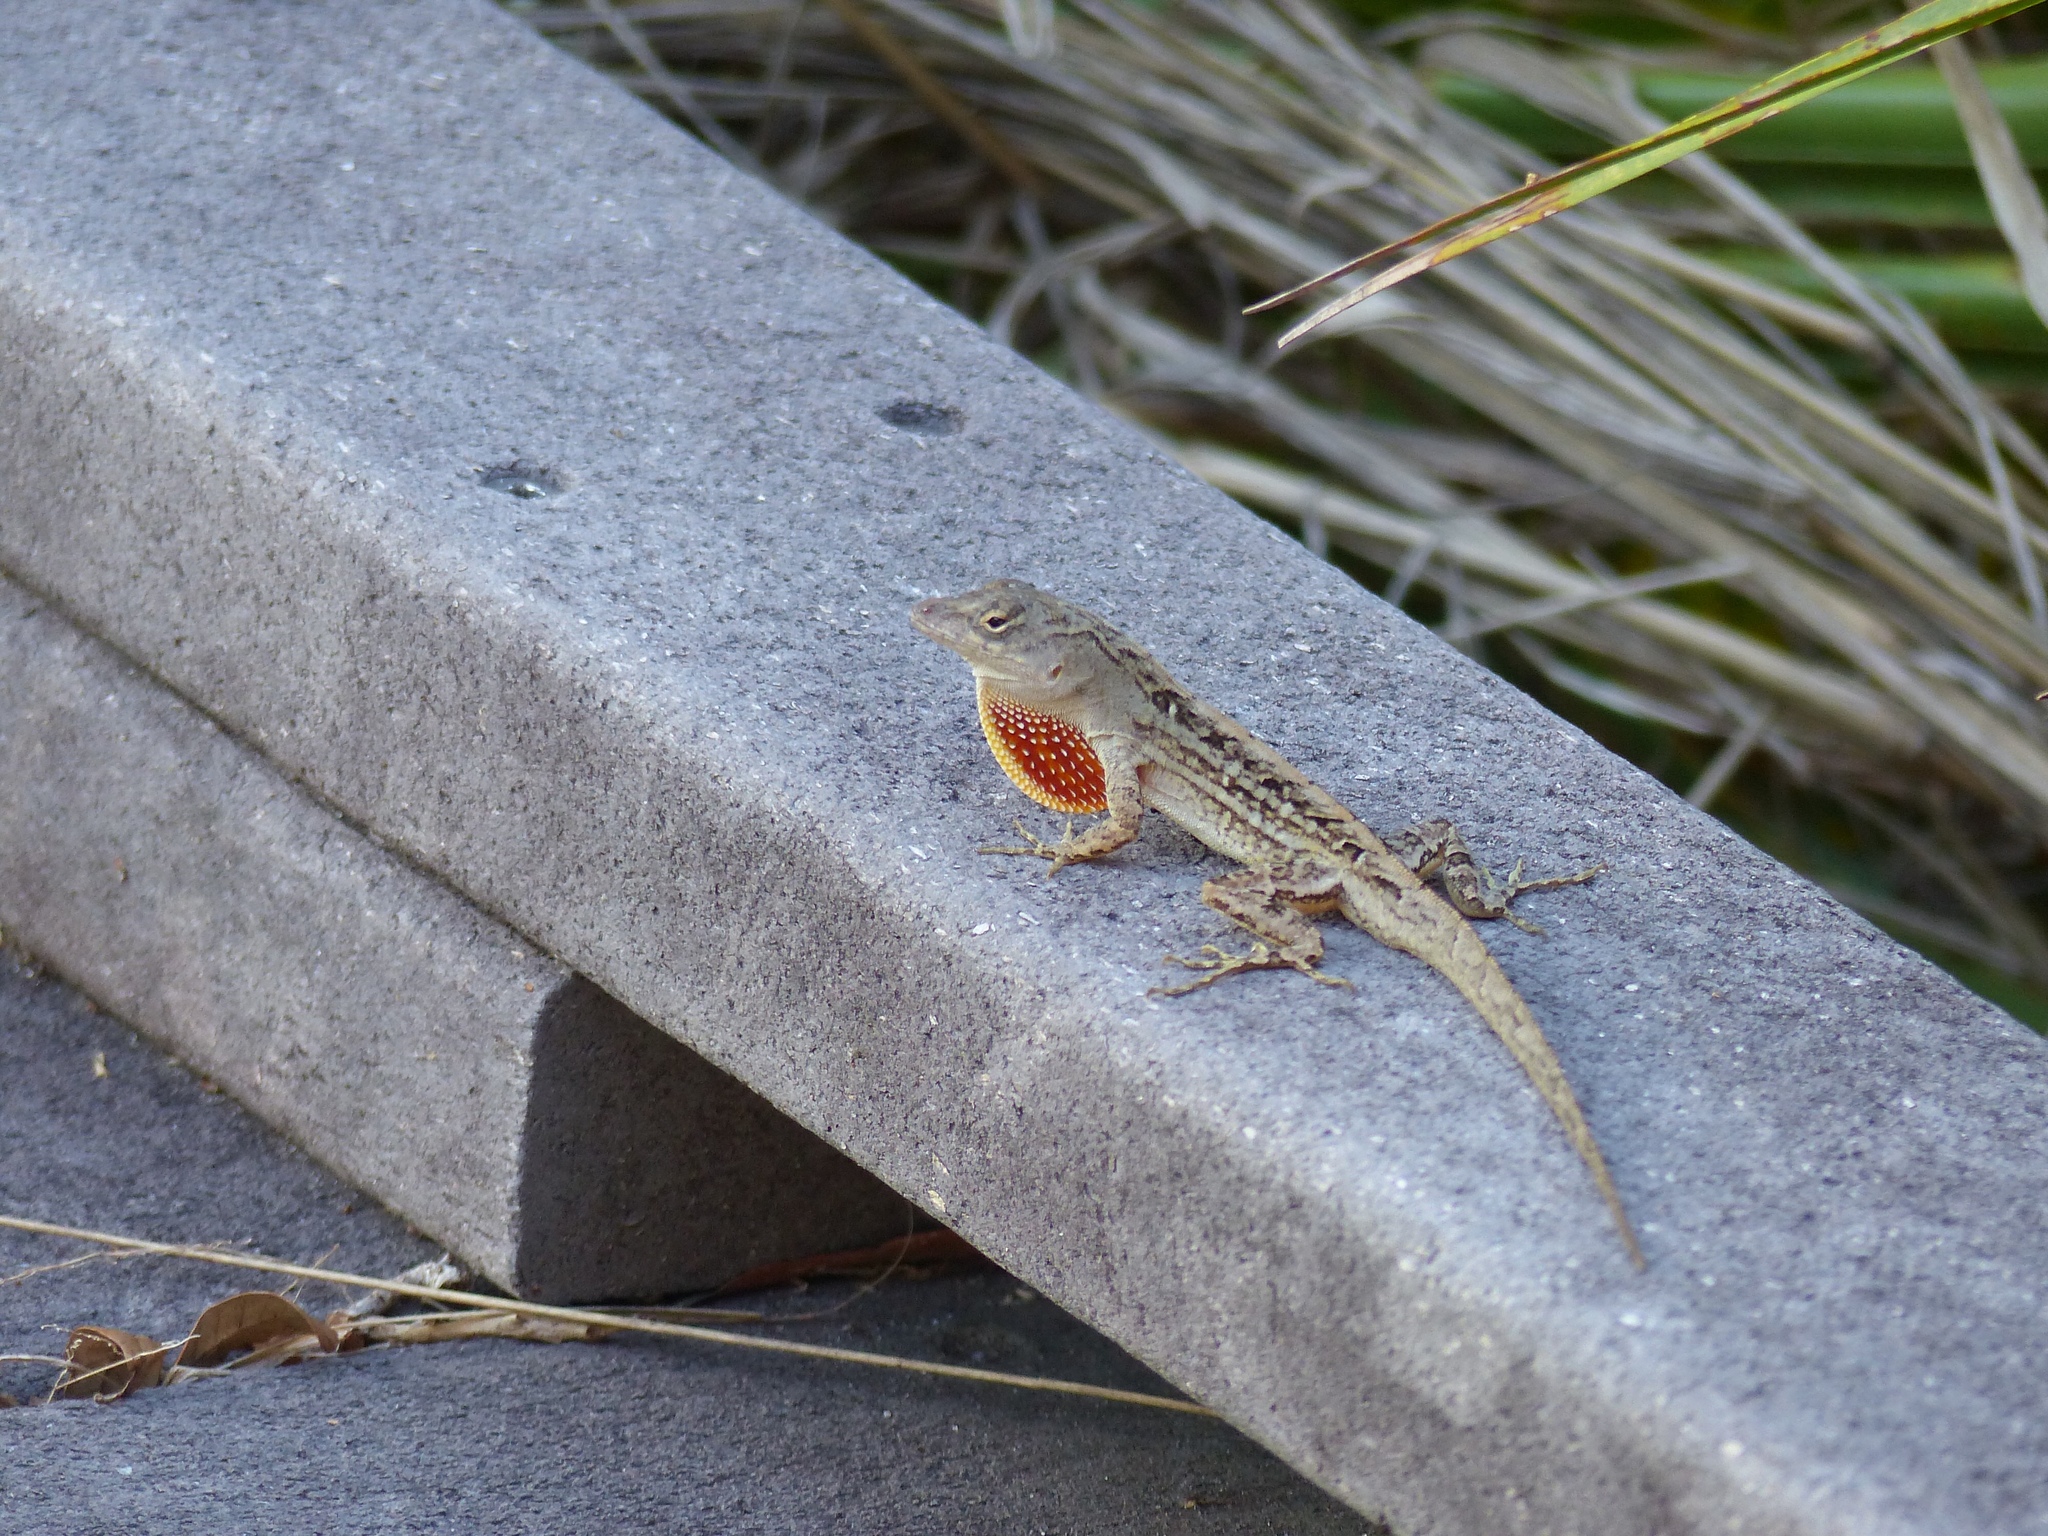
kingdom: Animalia
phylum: Chordata
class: Squamata
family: Dactyloidae
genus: Anolis
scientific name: Anolis sagrei
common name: Brown anole
